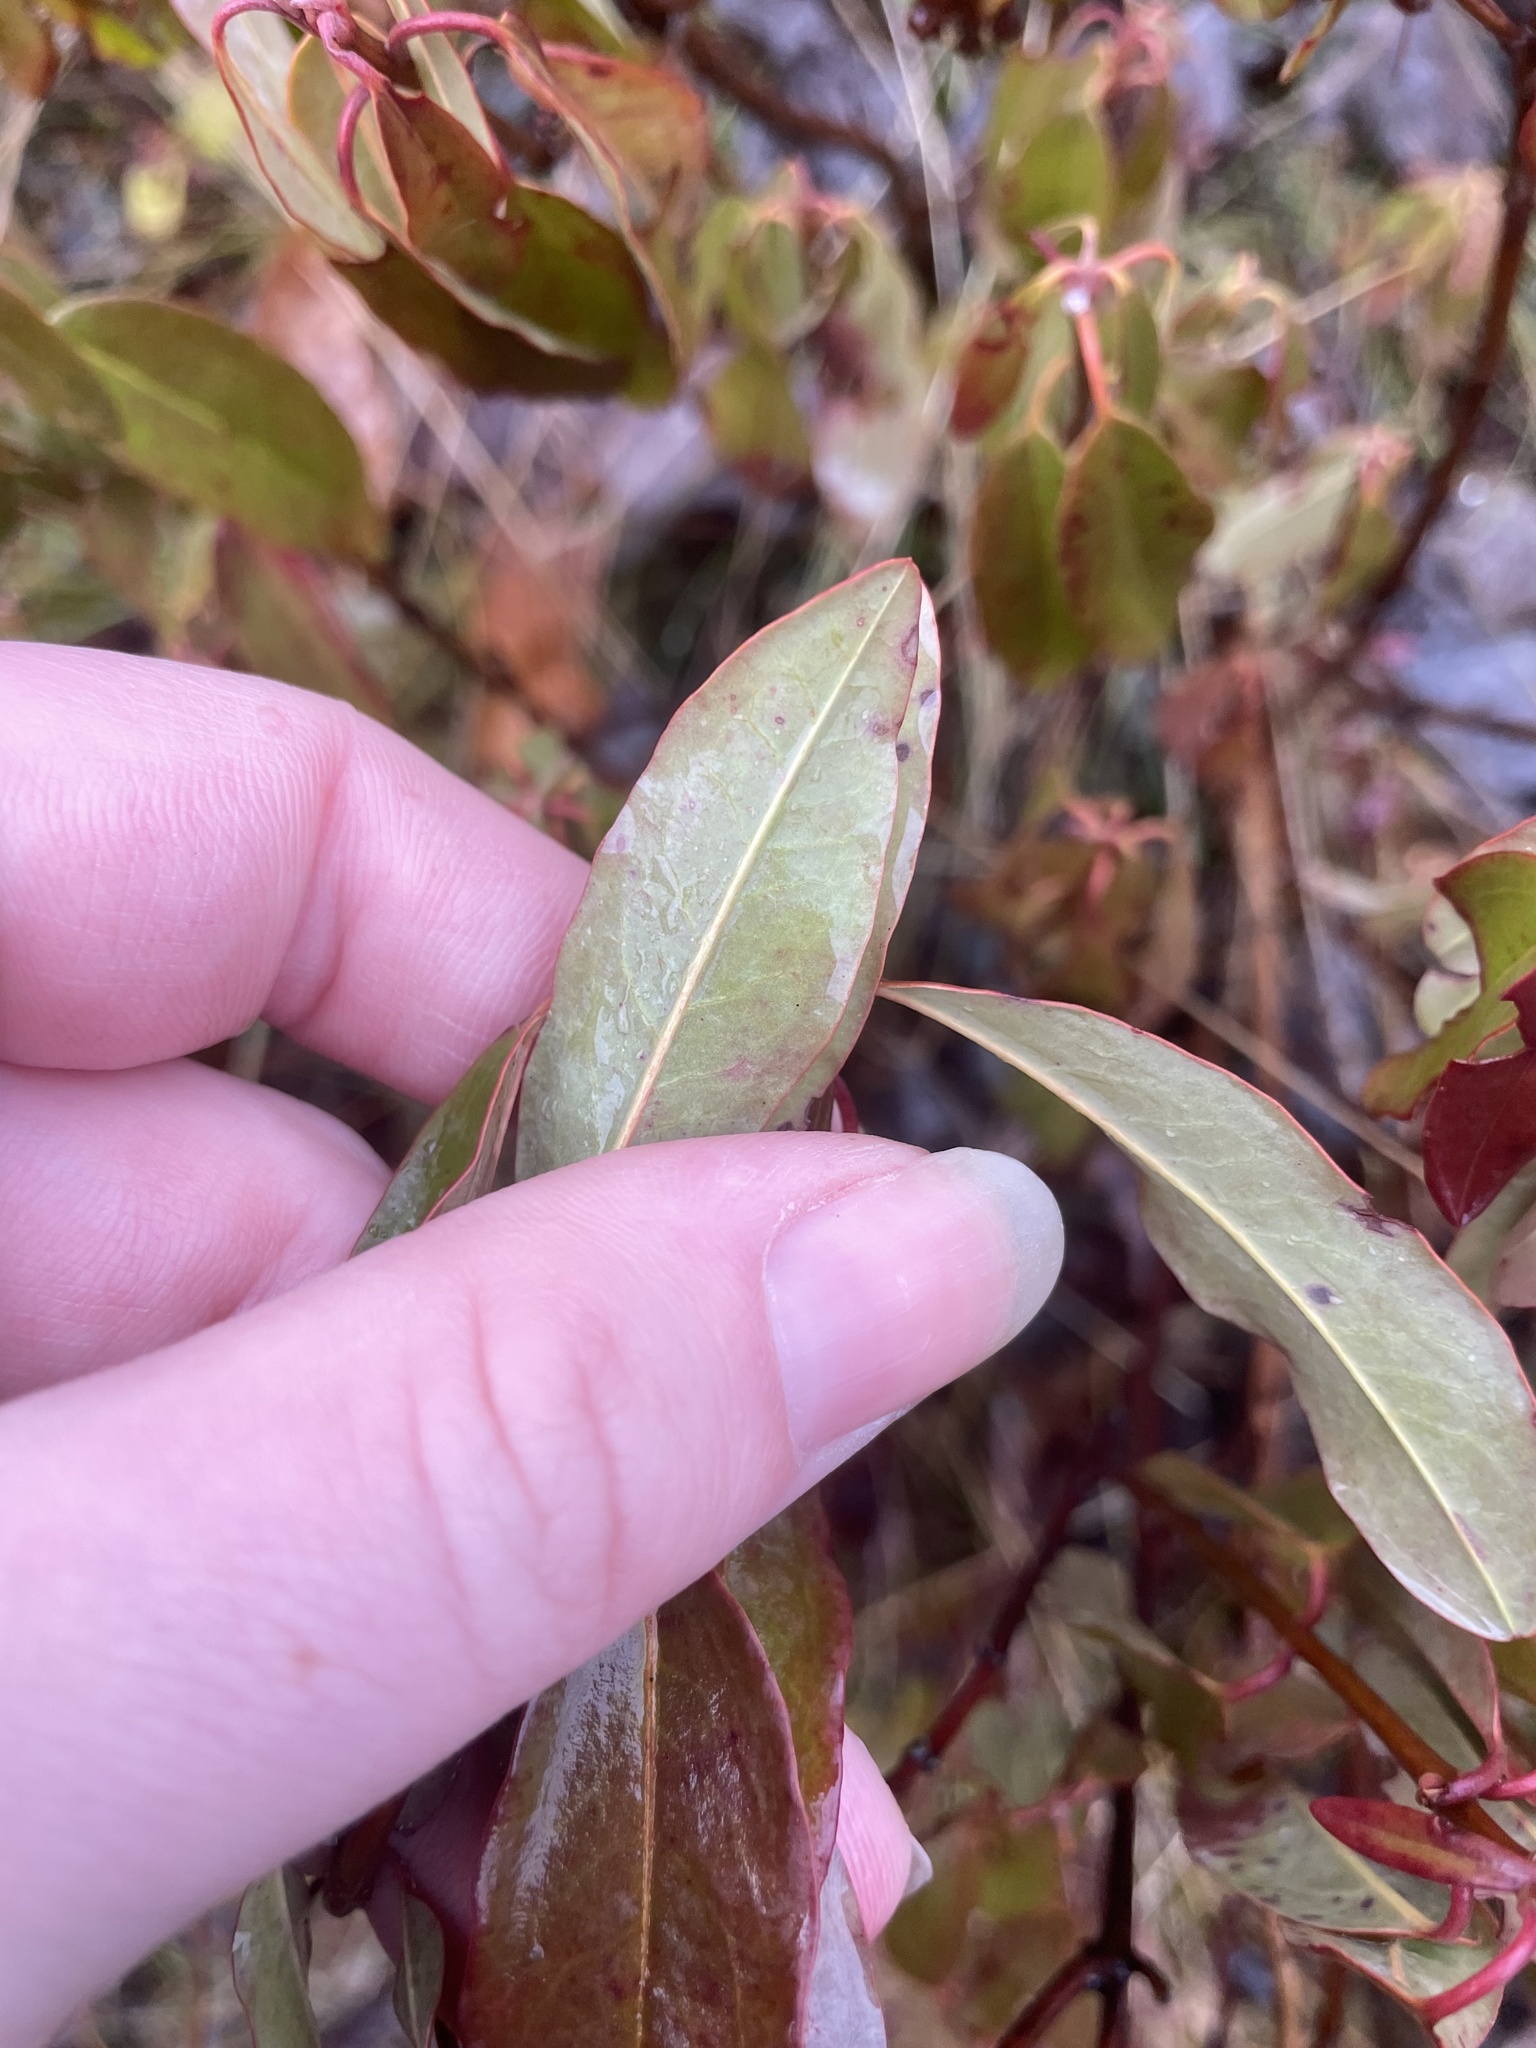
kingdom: Plantae
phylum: Tracheophyta
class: Magnoliopsida
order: Ericales
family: Ericaceae
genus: Kalmia
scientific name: Kalmia angustifolia
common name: Sheep-laurel
